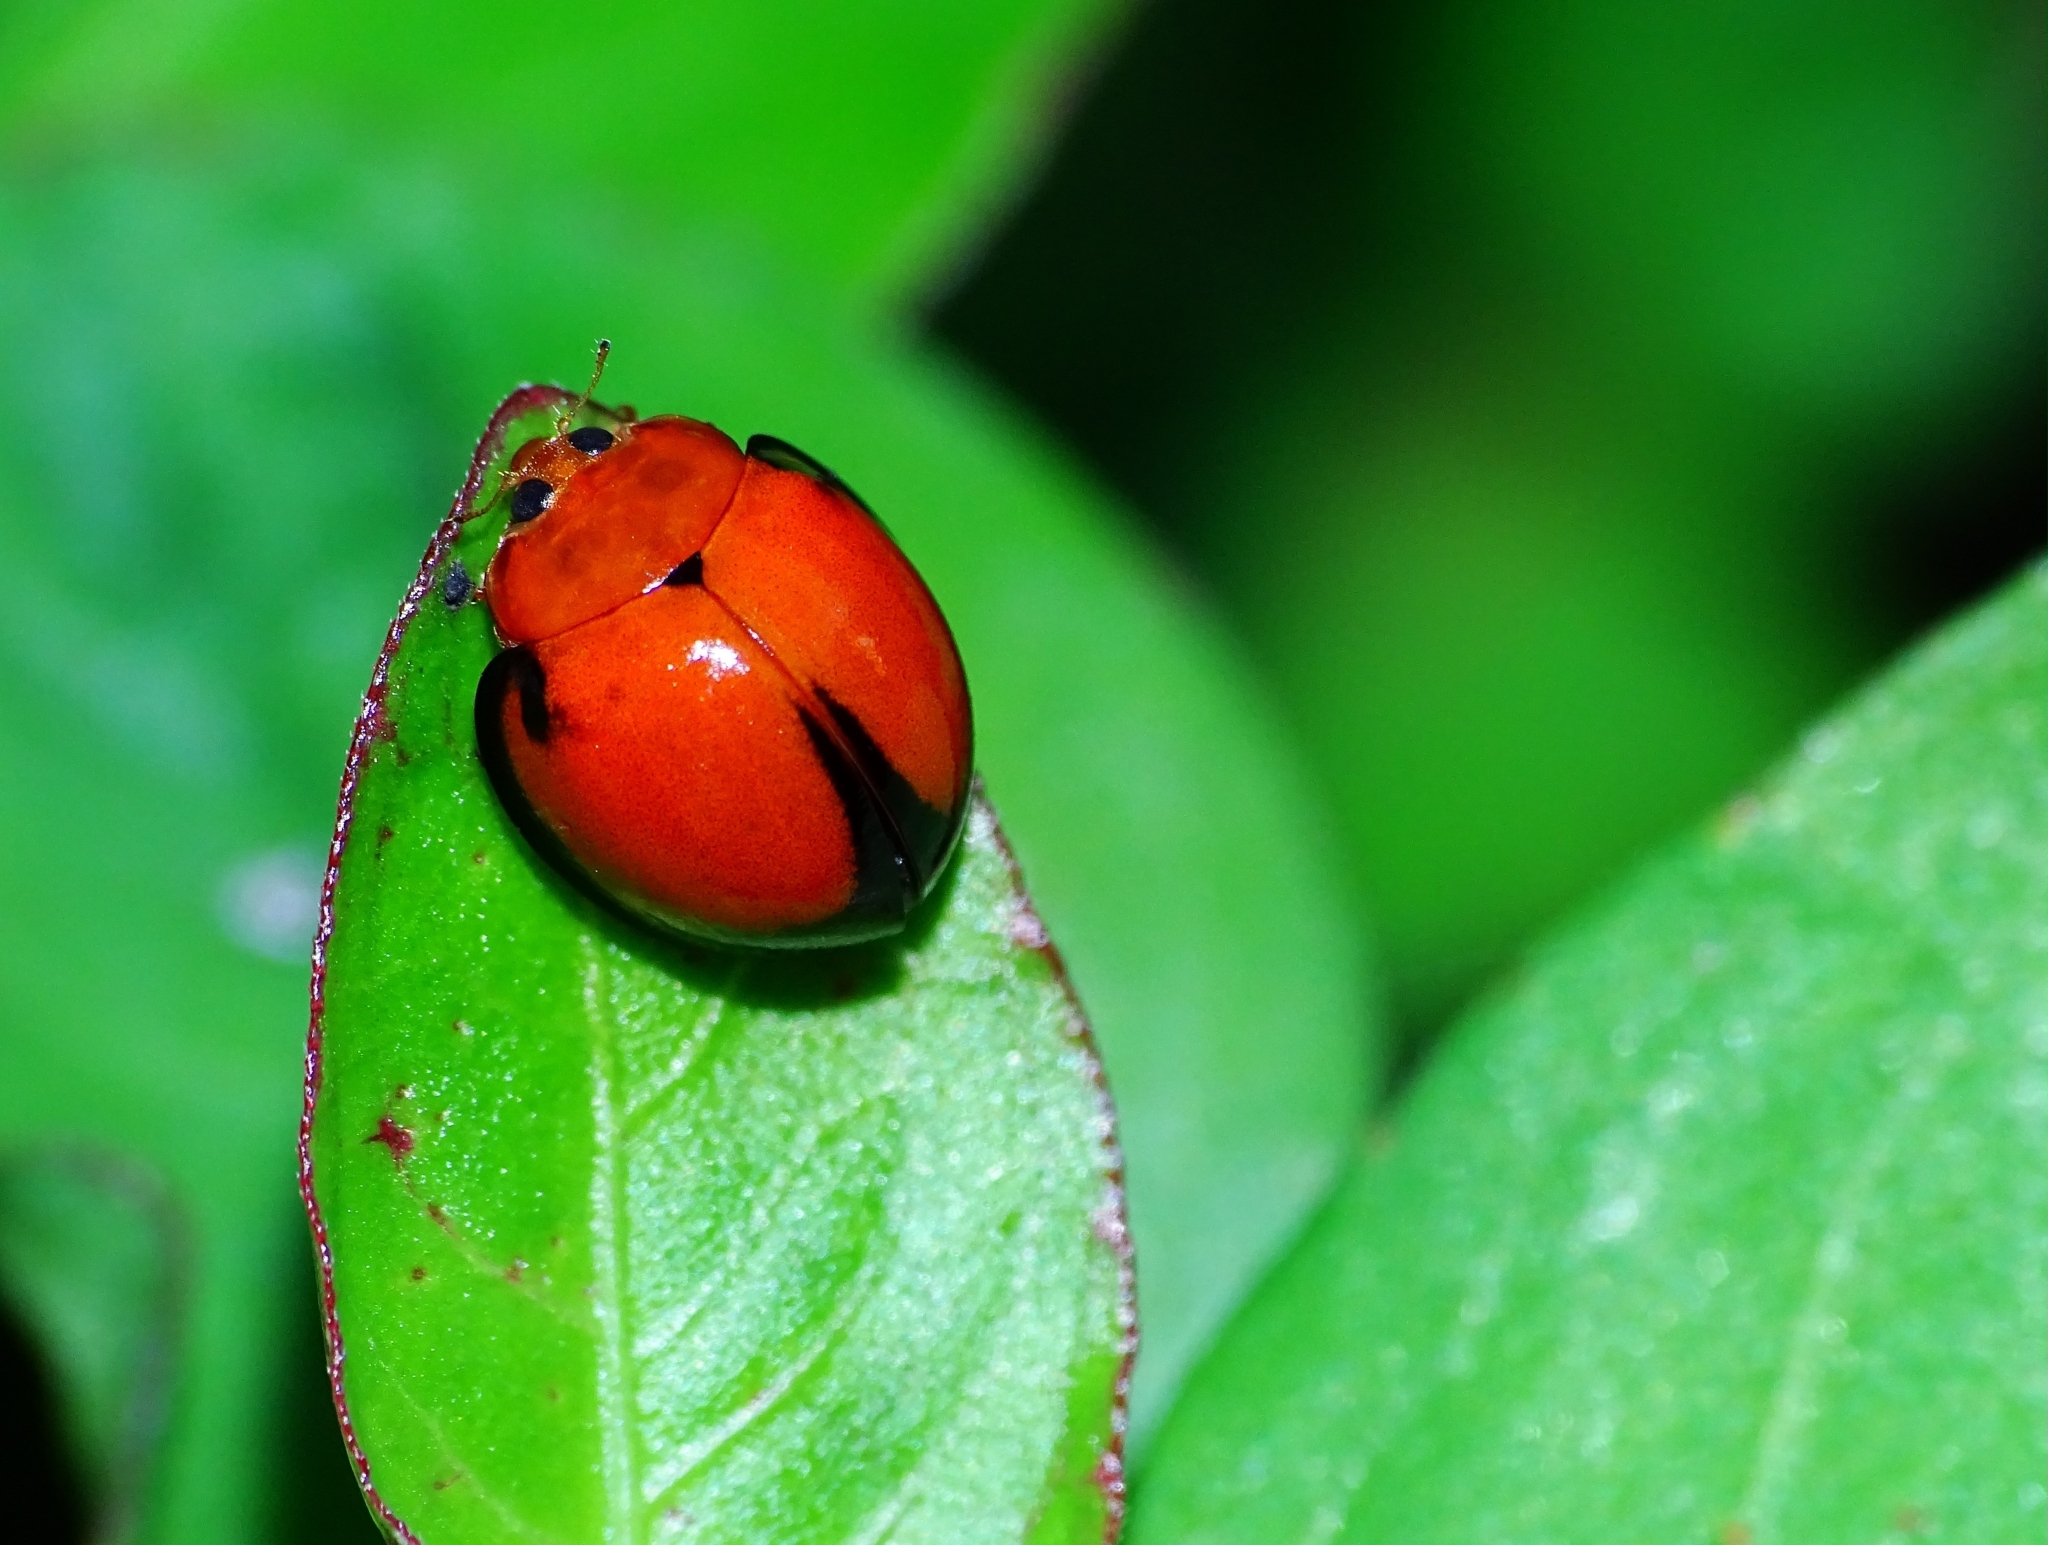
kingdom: Animalia
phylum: Arthropoda
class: Insecta
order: Coleoptera
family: Coccinellidae
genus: Phrynocaria
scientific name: Phrynocaria perfida
